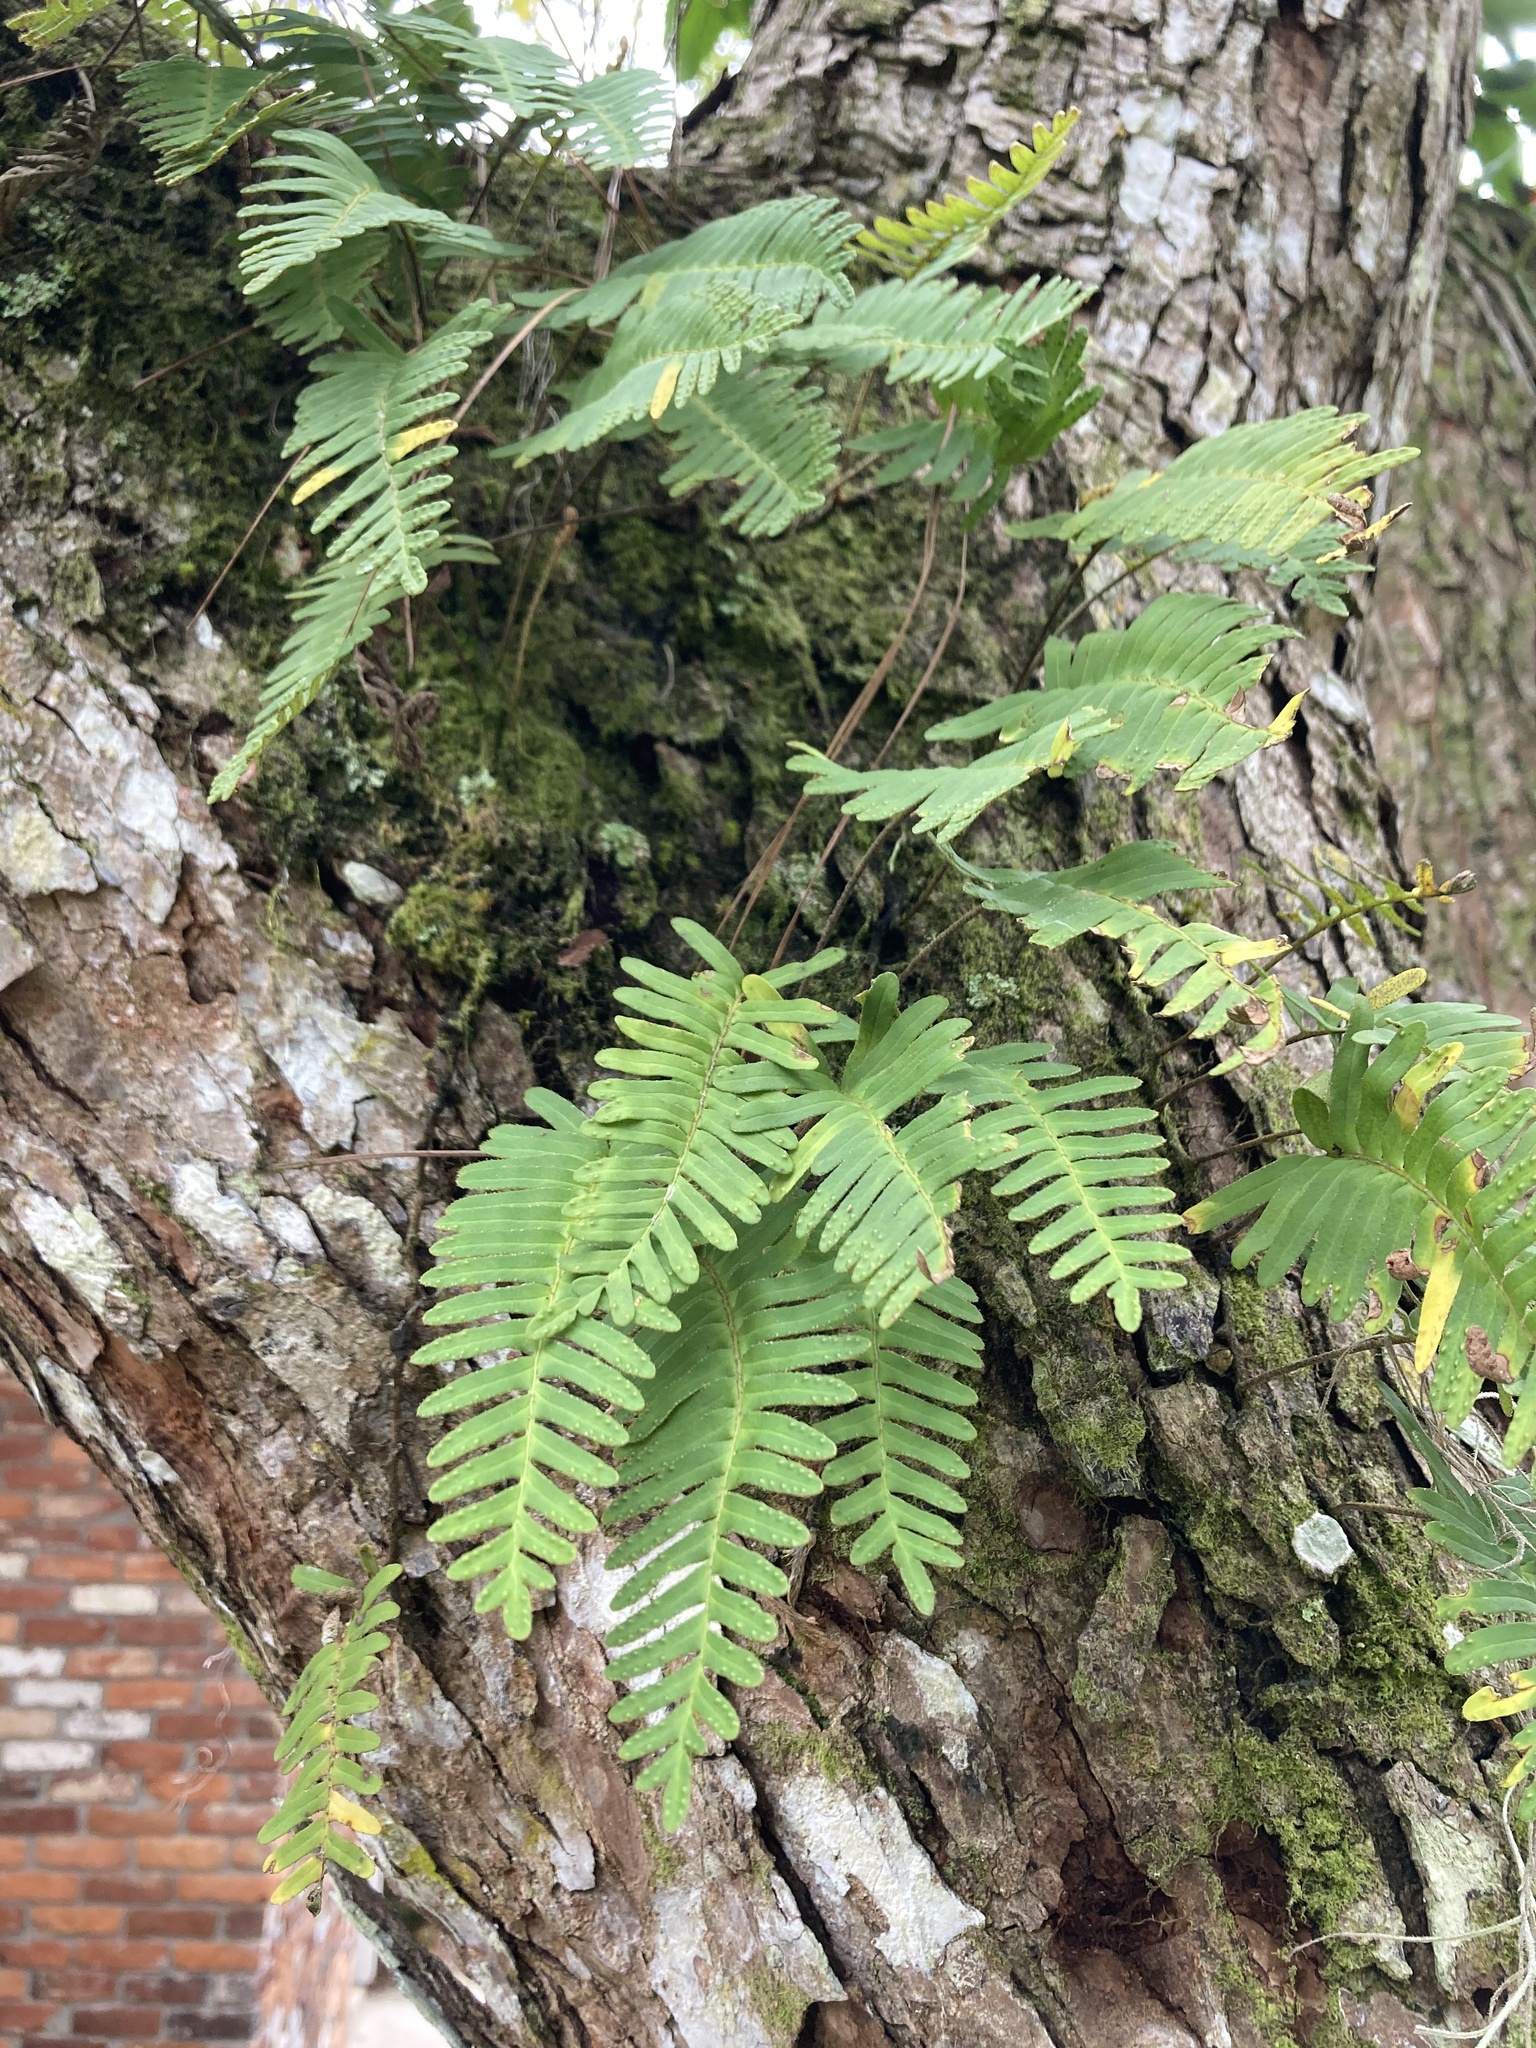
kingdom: Plantae
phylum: Tracheophyta
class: Polypodiopsida
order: Polypodiales
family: Polypodiaceae
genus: Pleopeltis
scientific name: Pleopeltis michauxiana
